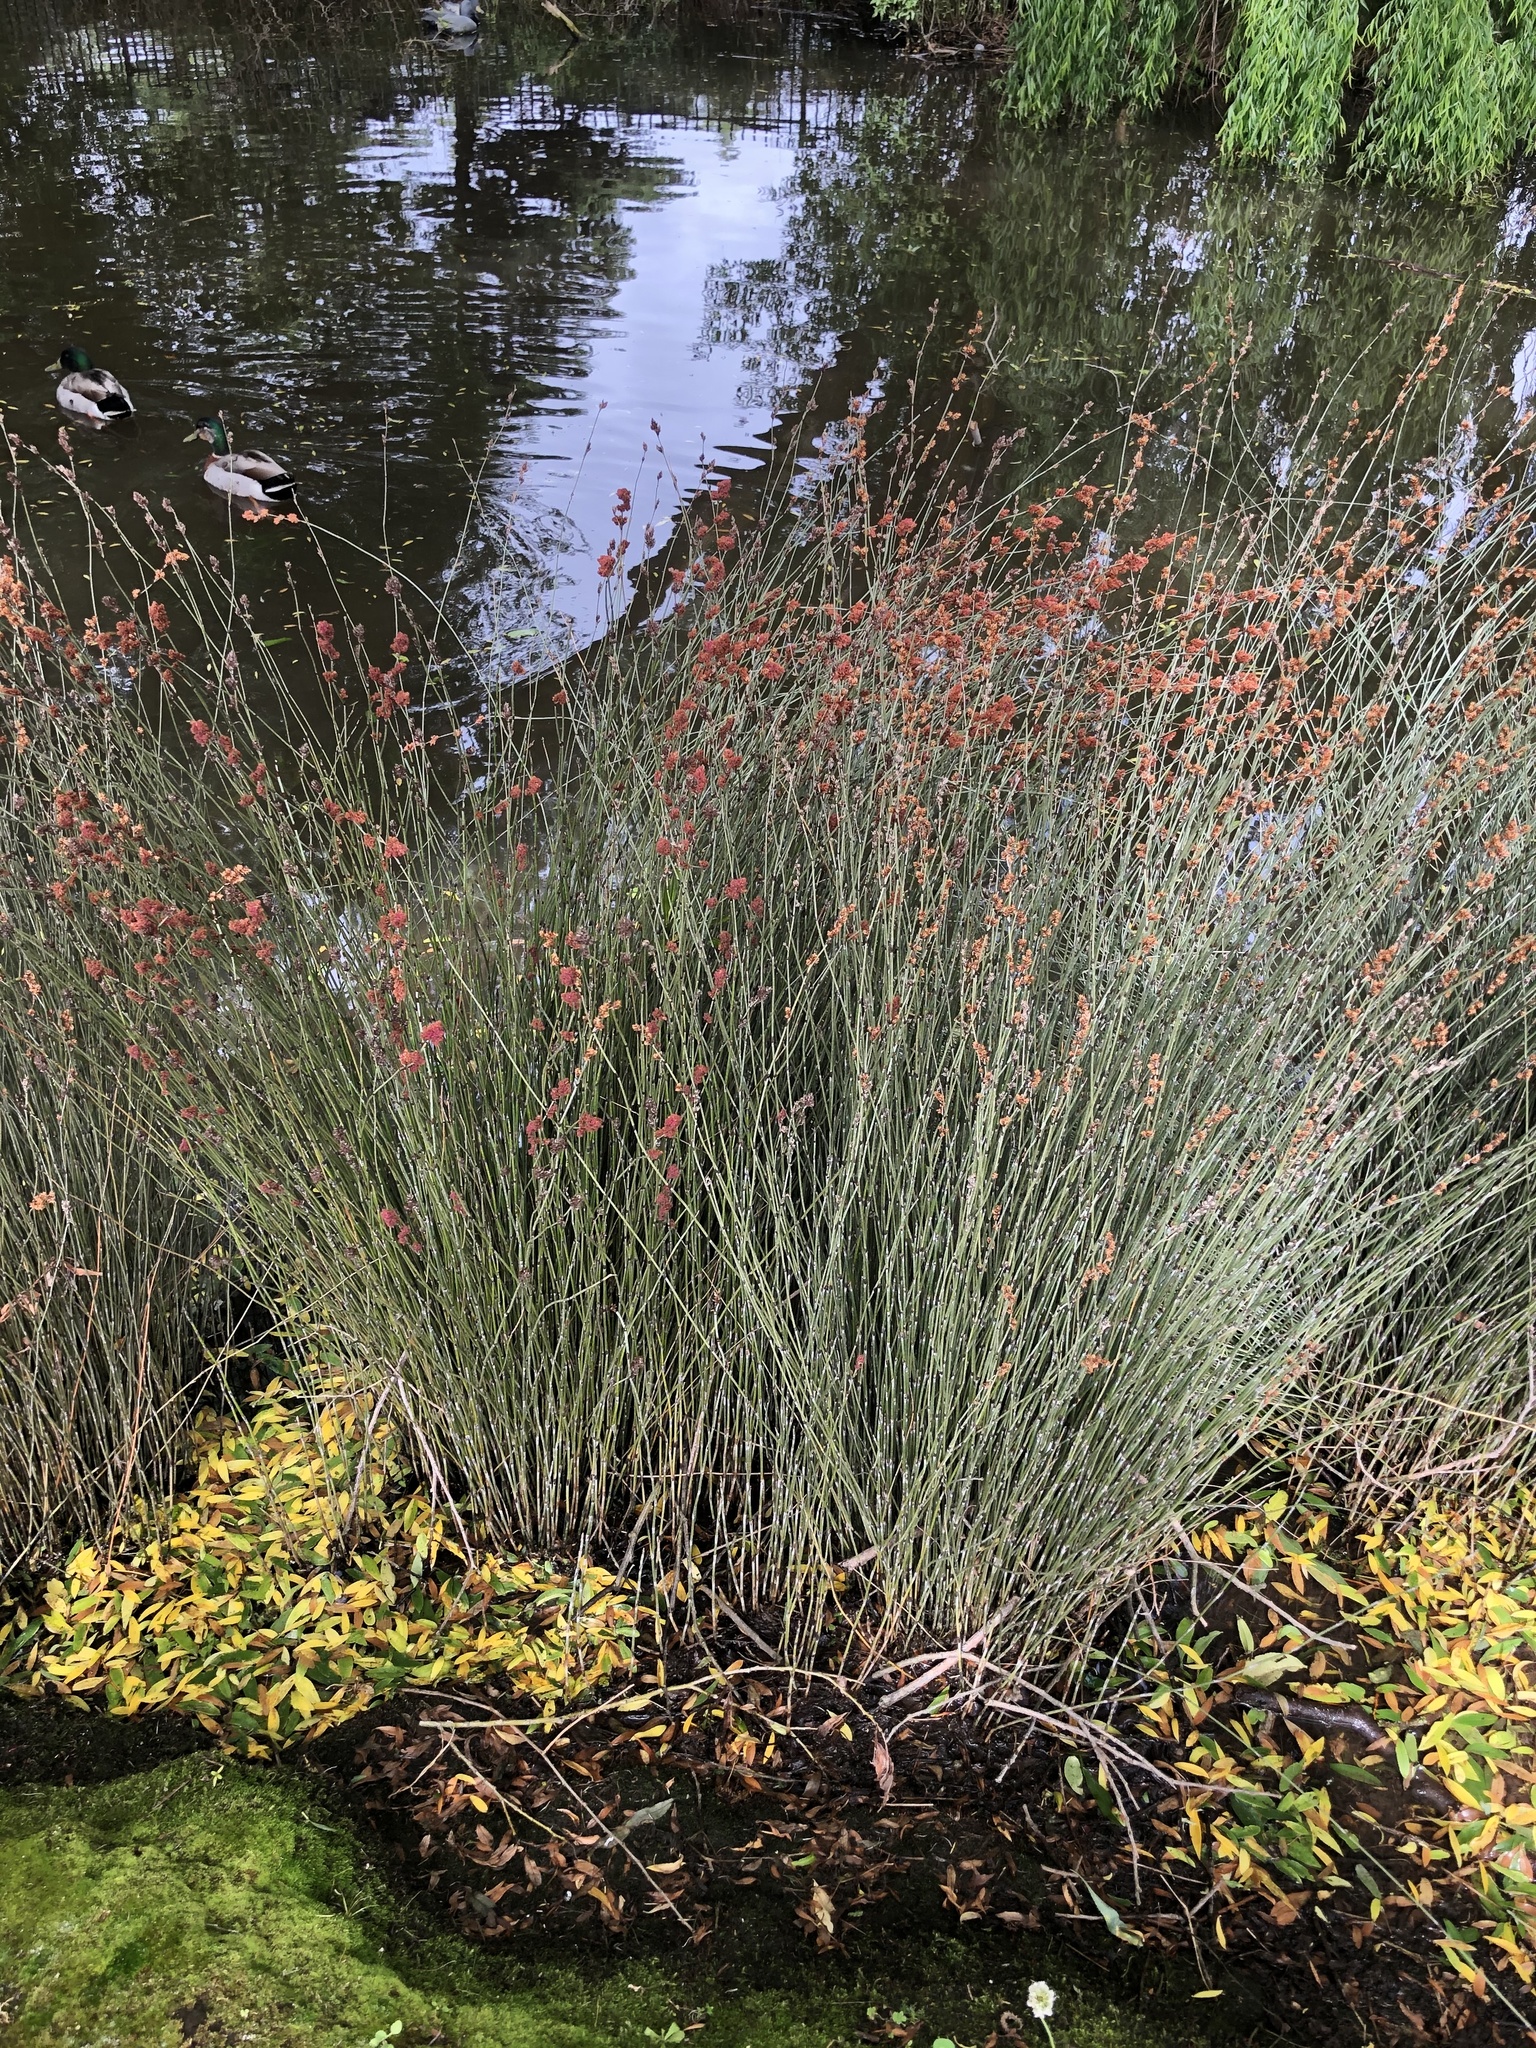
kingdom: Plantae
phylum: Tracheophyta
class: Liliopsida
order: Poales
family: Restionaceae
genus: Apodasmia
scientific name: Apodasmia similis
